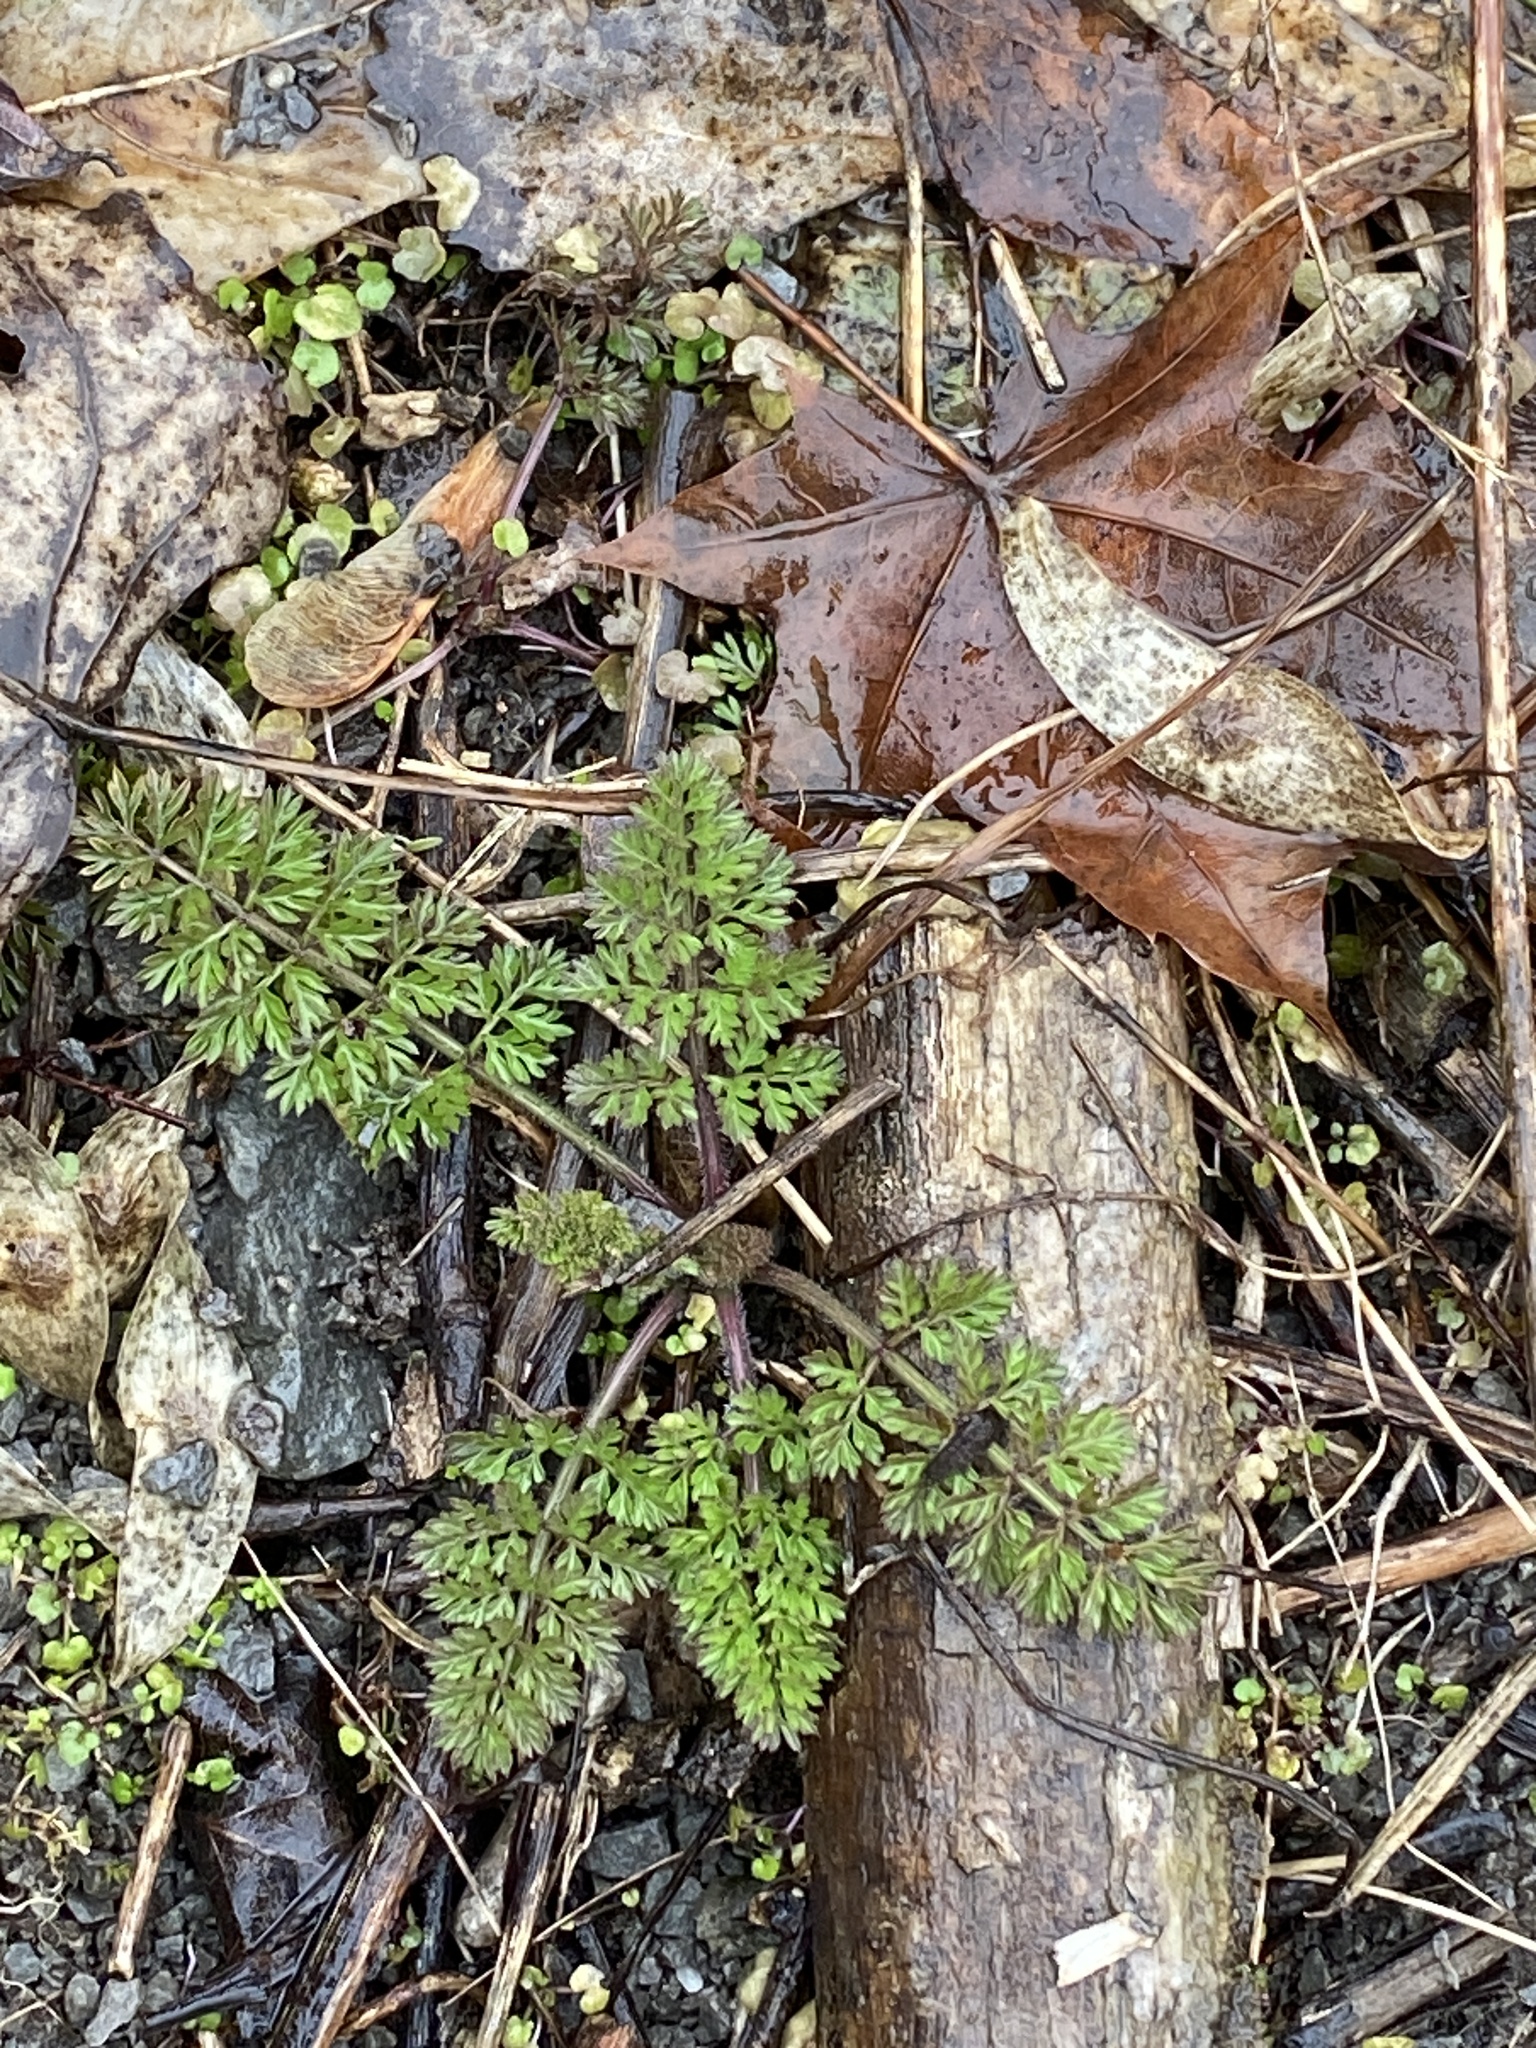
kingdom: Plantae
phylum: Tracheophyta
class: Magnoliopsida
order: Apiales
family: Apiaceae
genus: Daucus
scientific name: Daucus carota
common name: Wild carrot
